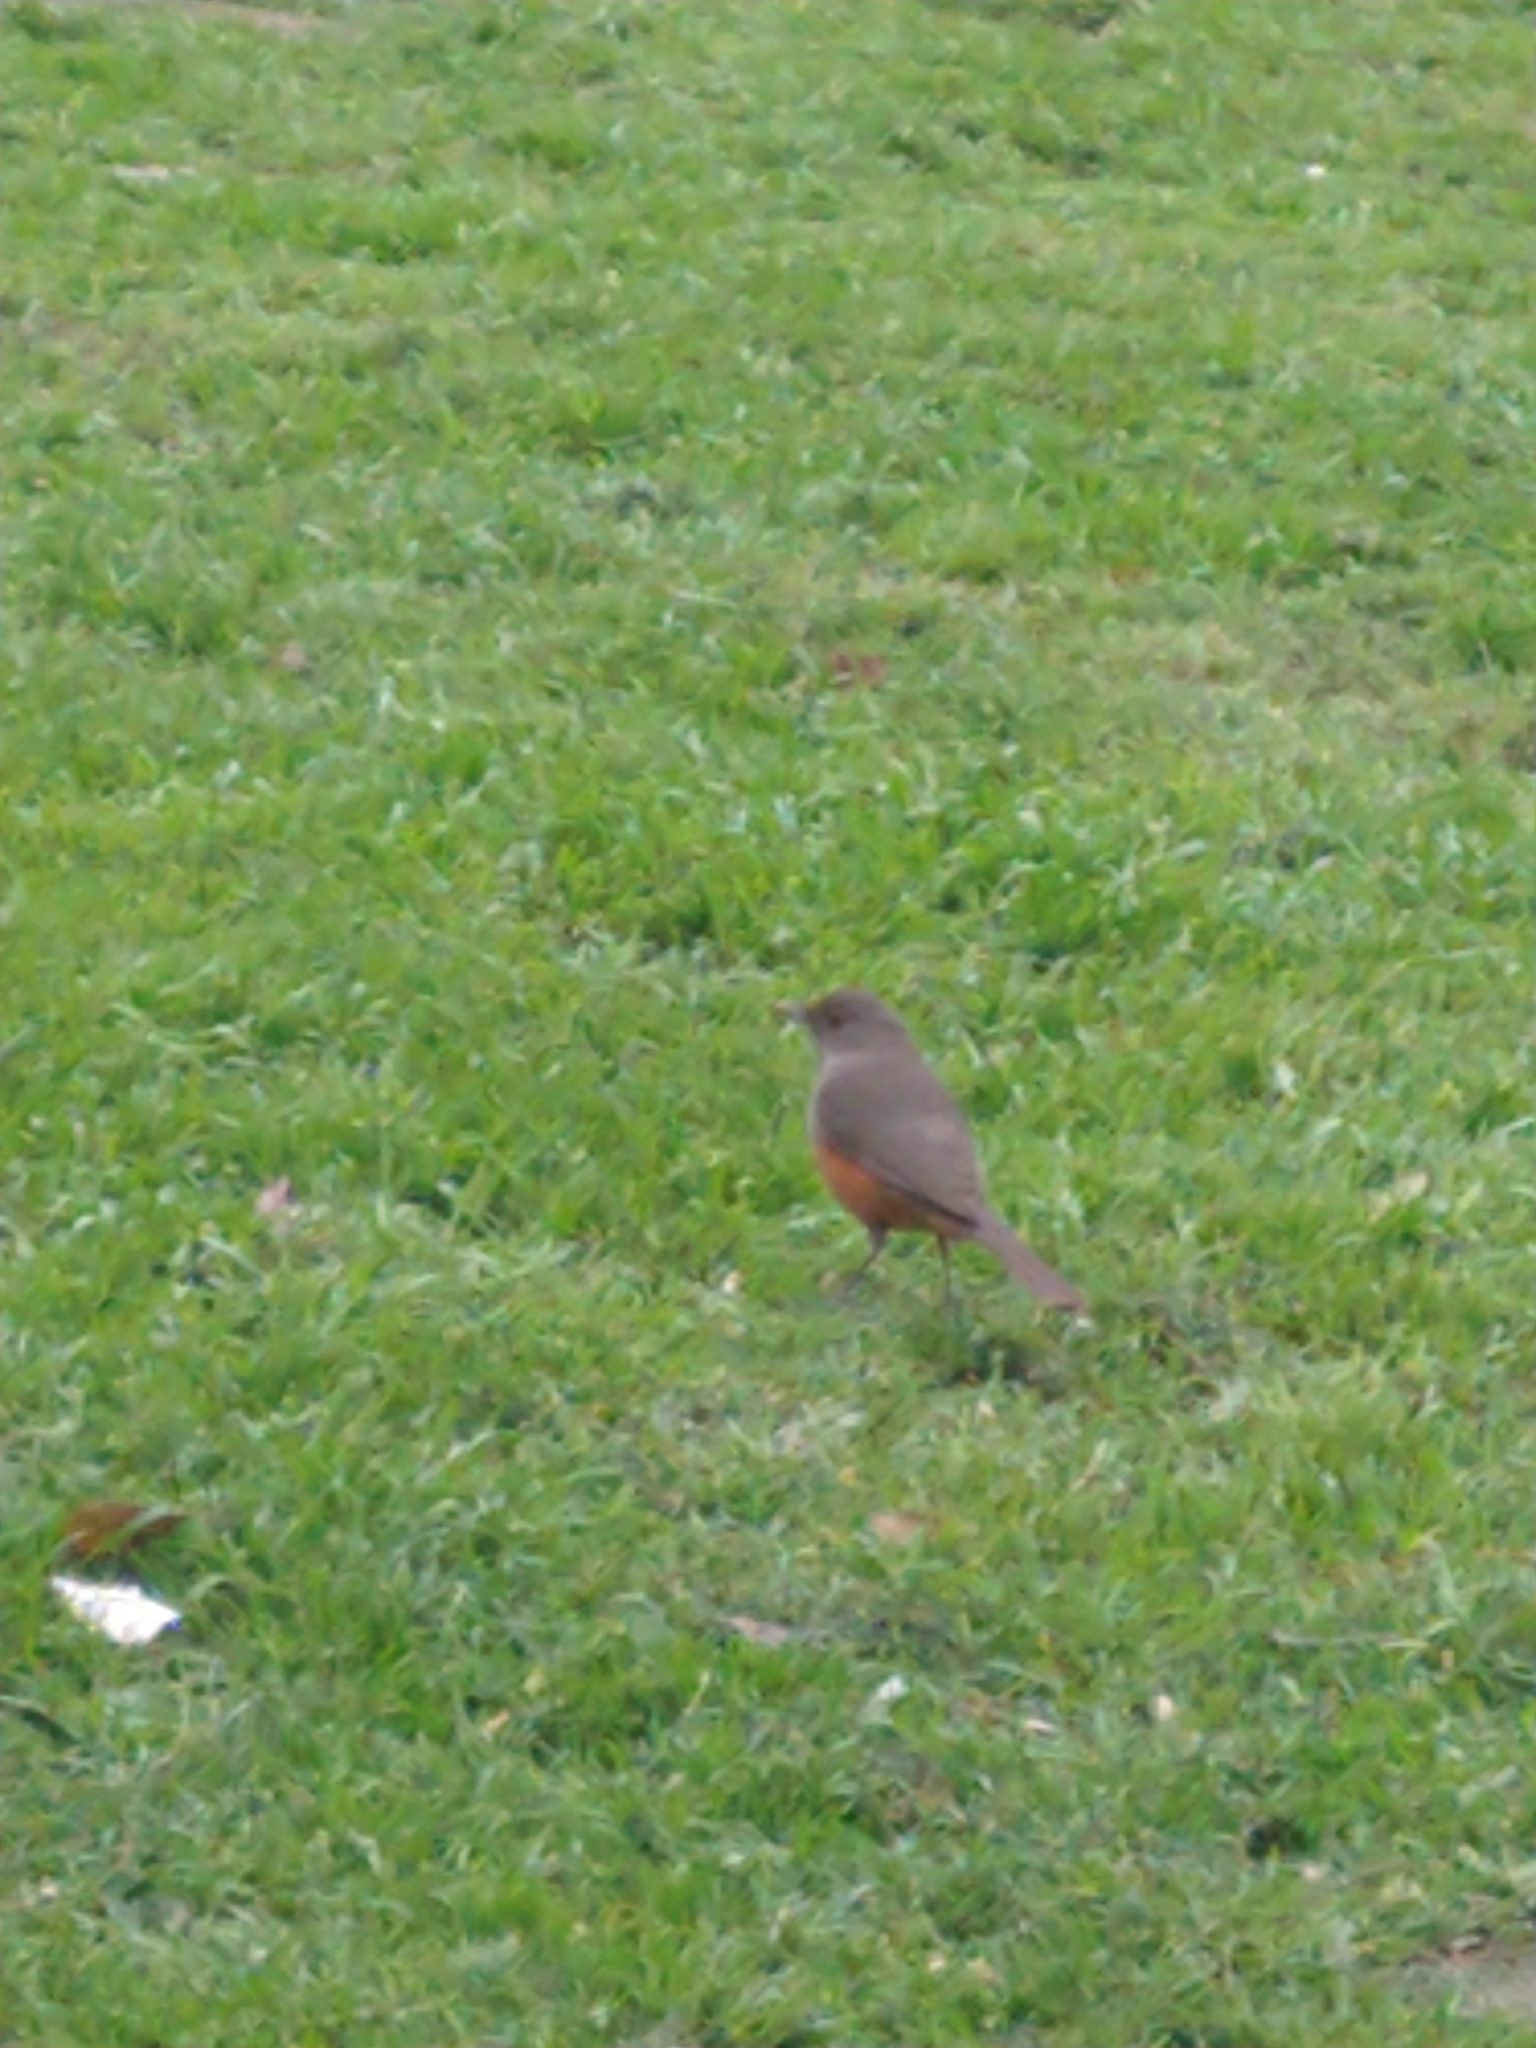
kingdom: Animalia
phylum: Chordata
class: Aves
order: Passeriformes
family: Turdidae
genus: Turdus
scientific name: Turdus rufiventris
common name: Rufous-bellied thrush
